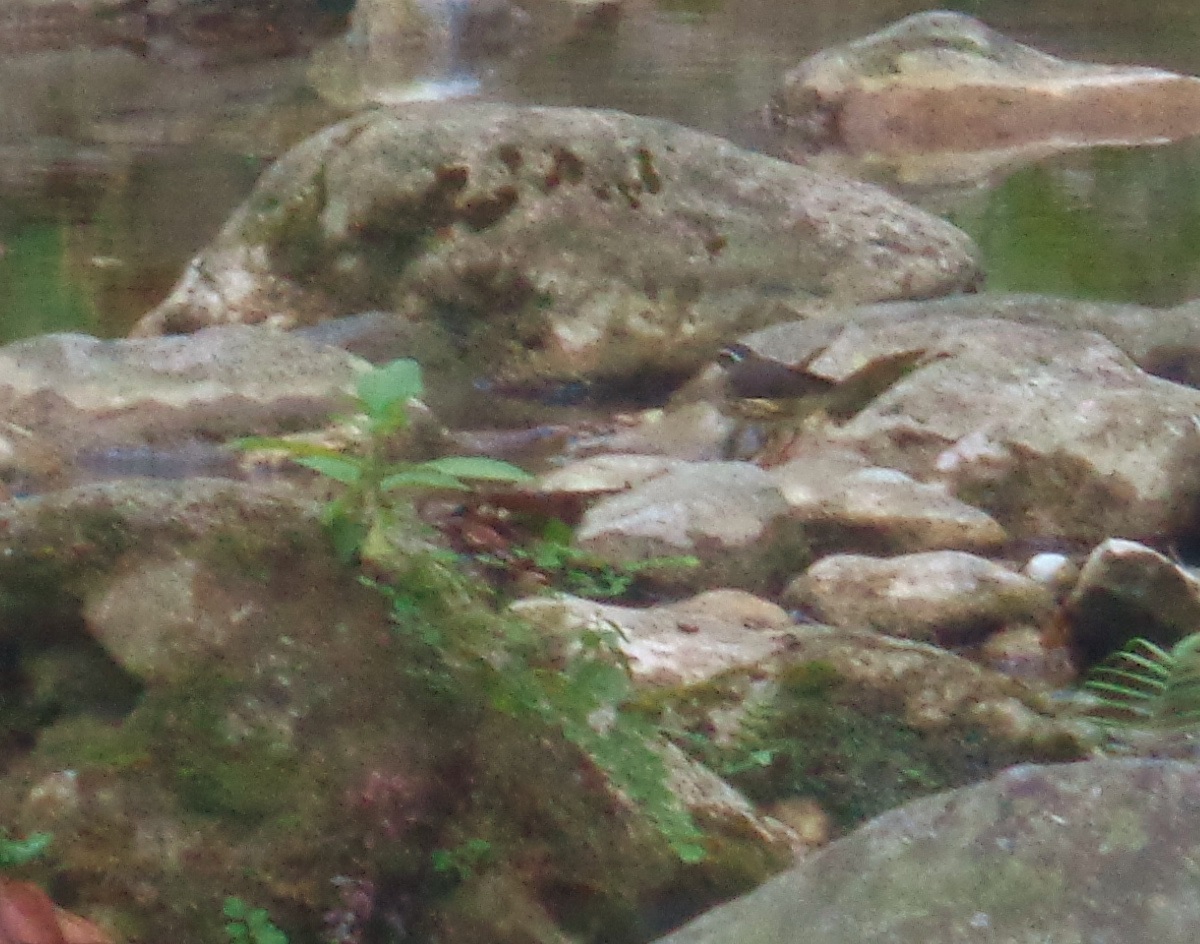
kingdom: Animalia
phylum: Chordata
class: Aves
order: Passeriformes
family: Parulidae
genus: Parkesia
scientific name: Parkesia motacilla
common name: Louisiana waterthrush
